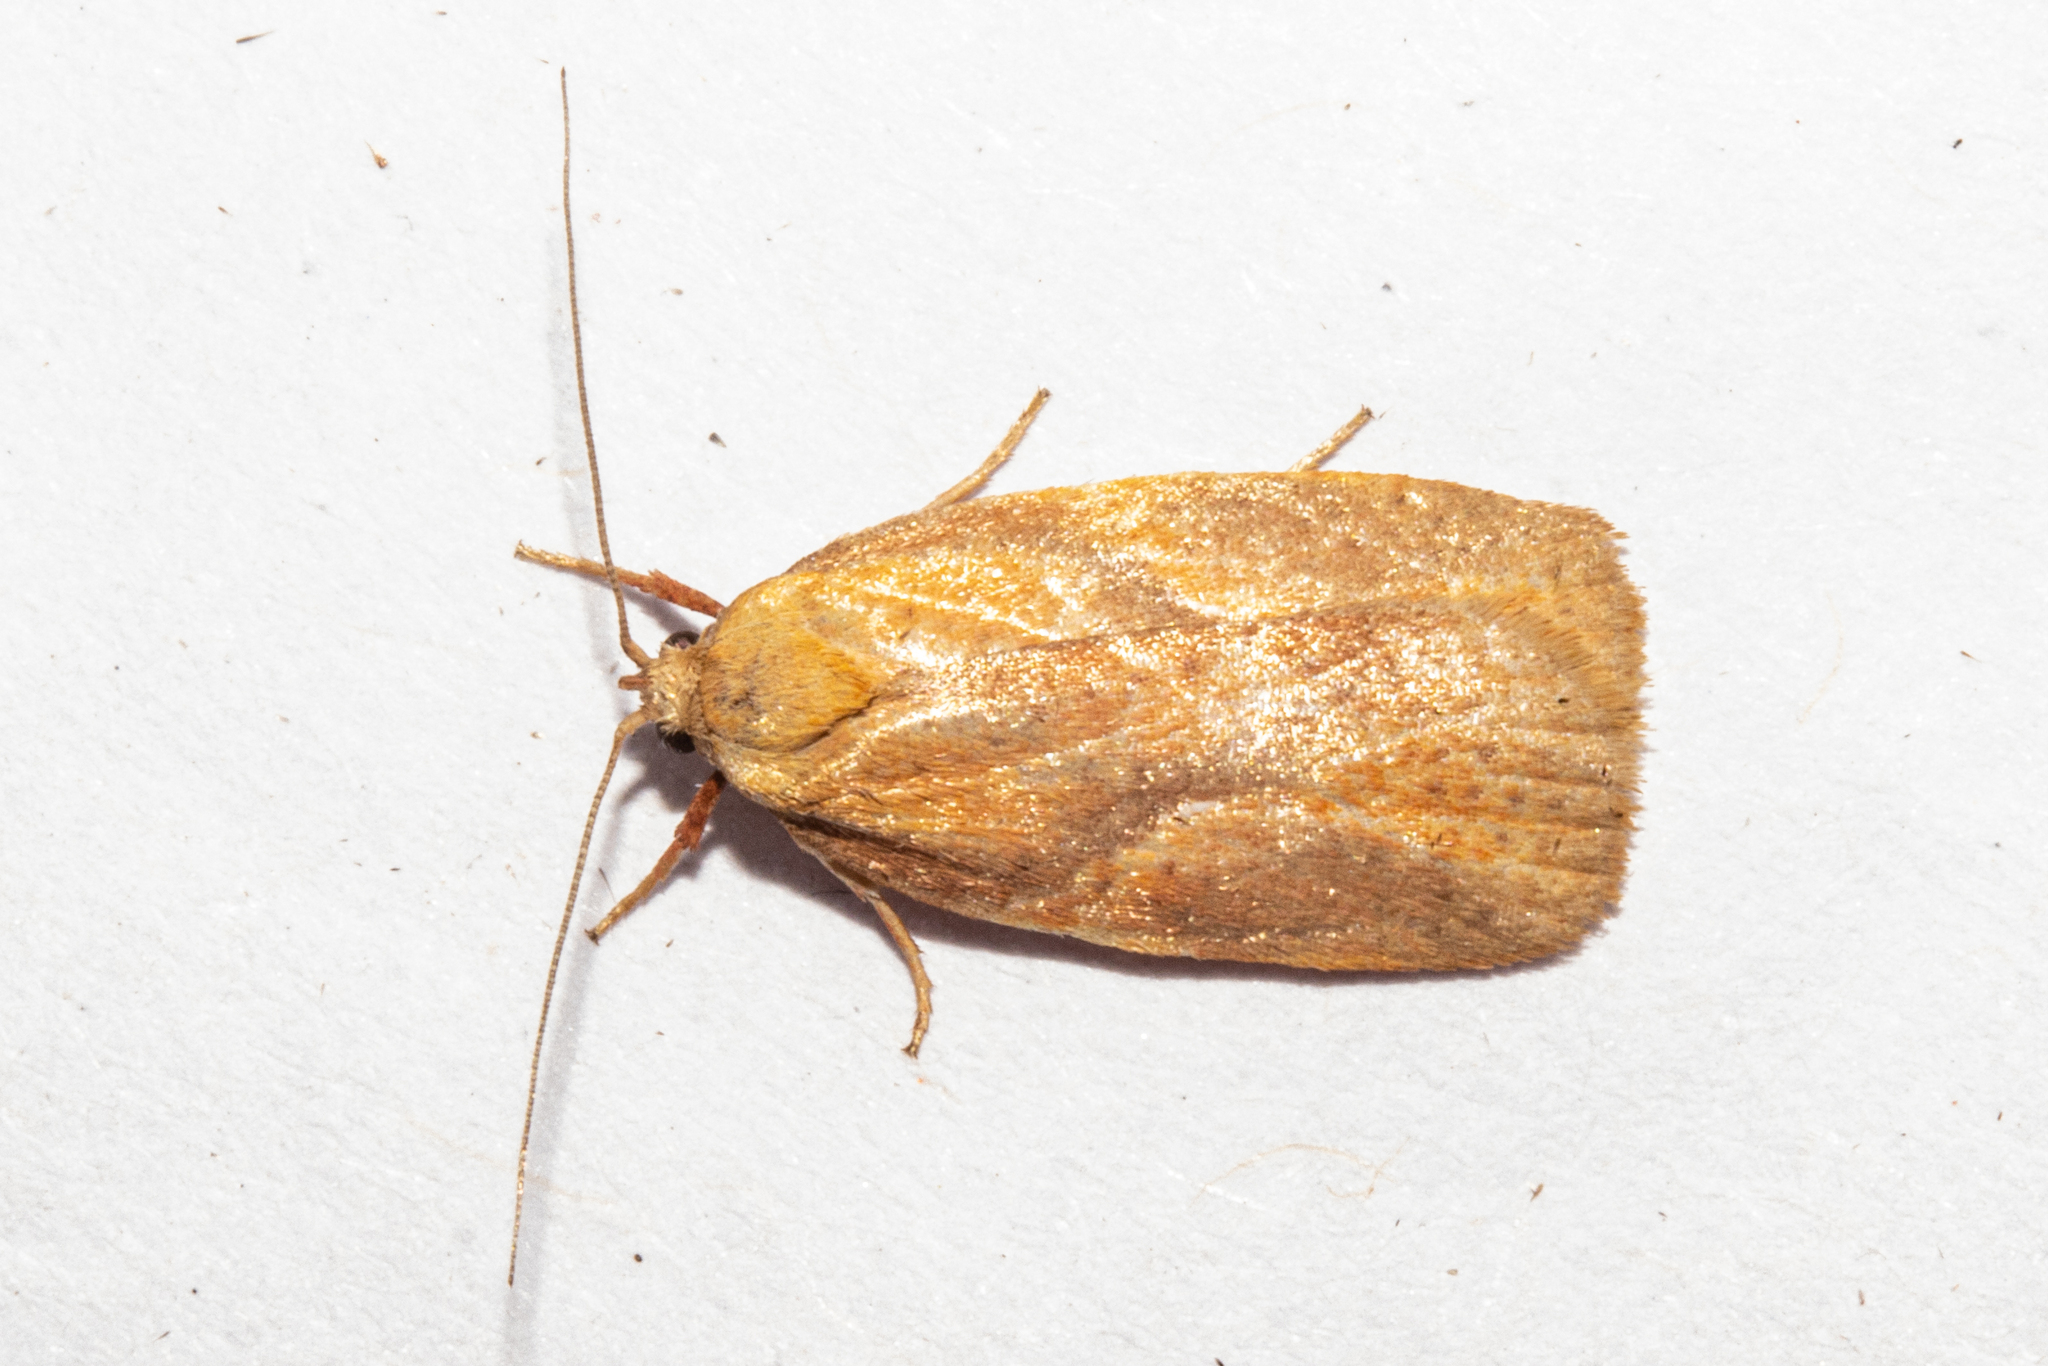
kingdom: Animalia
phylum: Arthropoda
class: Insecta
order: Lepidoptera
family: Oecophoridae
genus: Proteodes
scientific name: Proteodes carnifex
